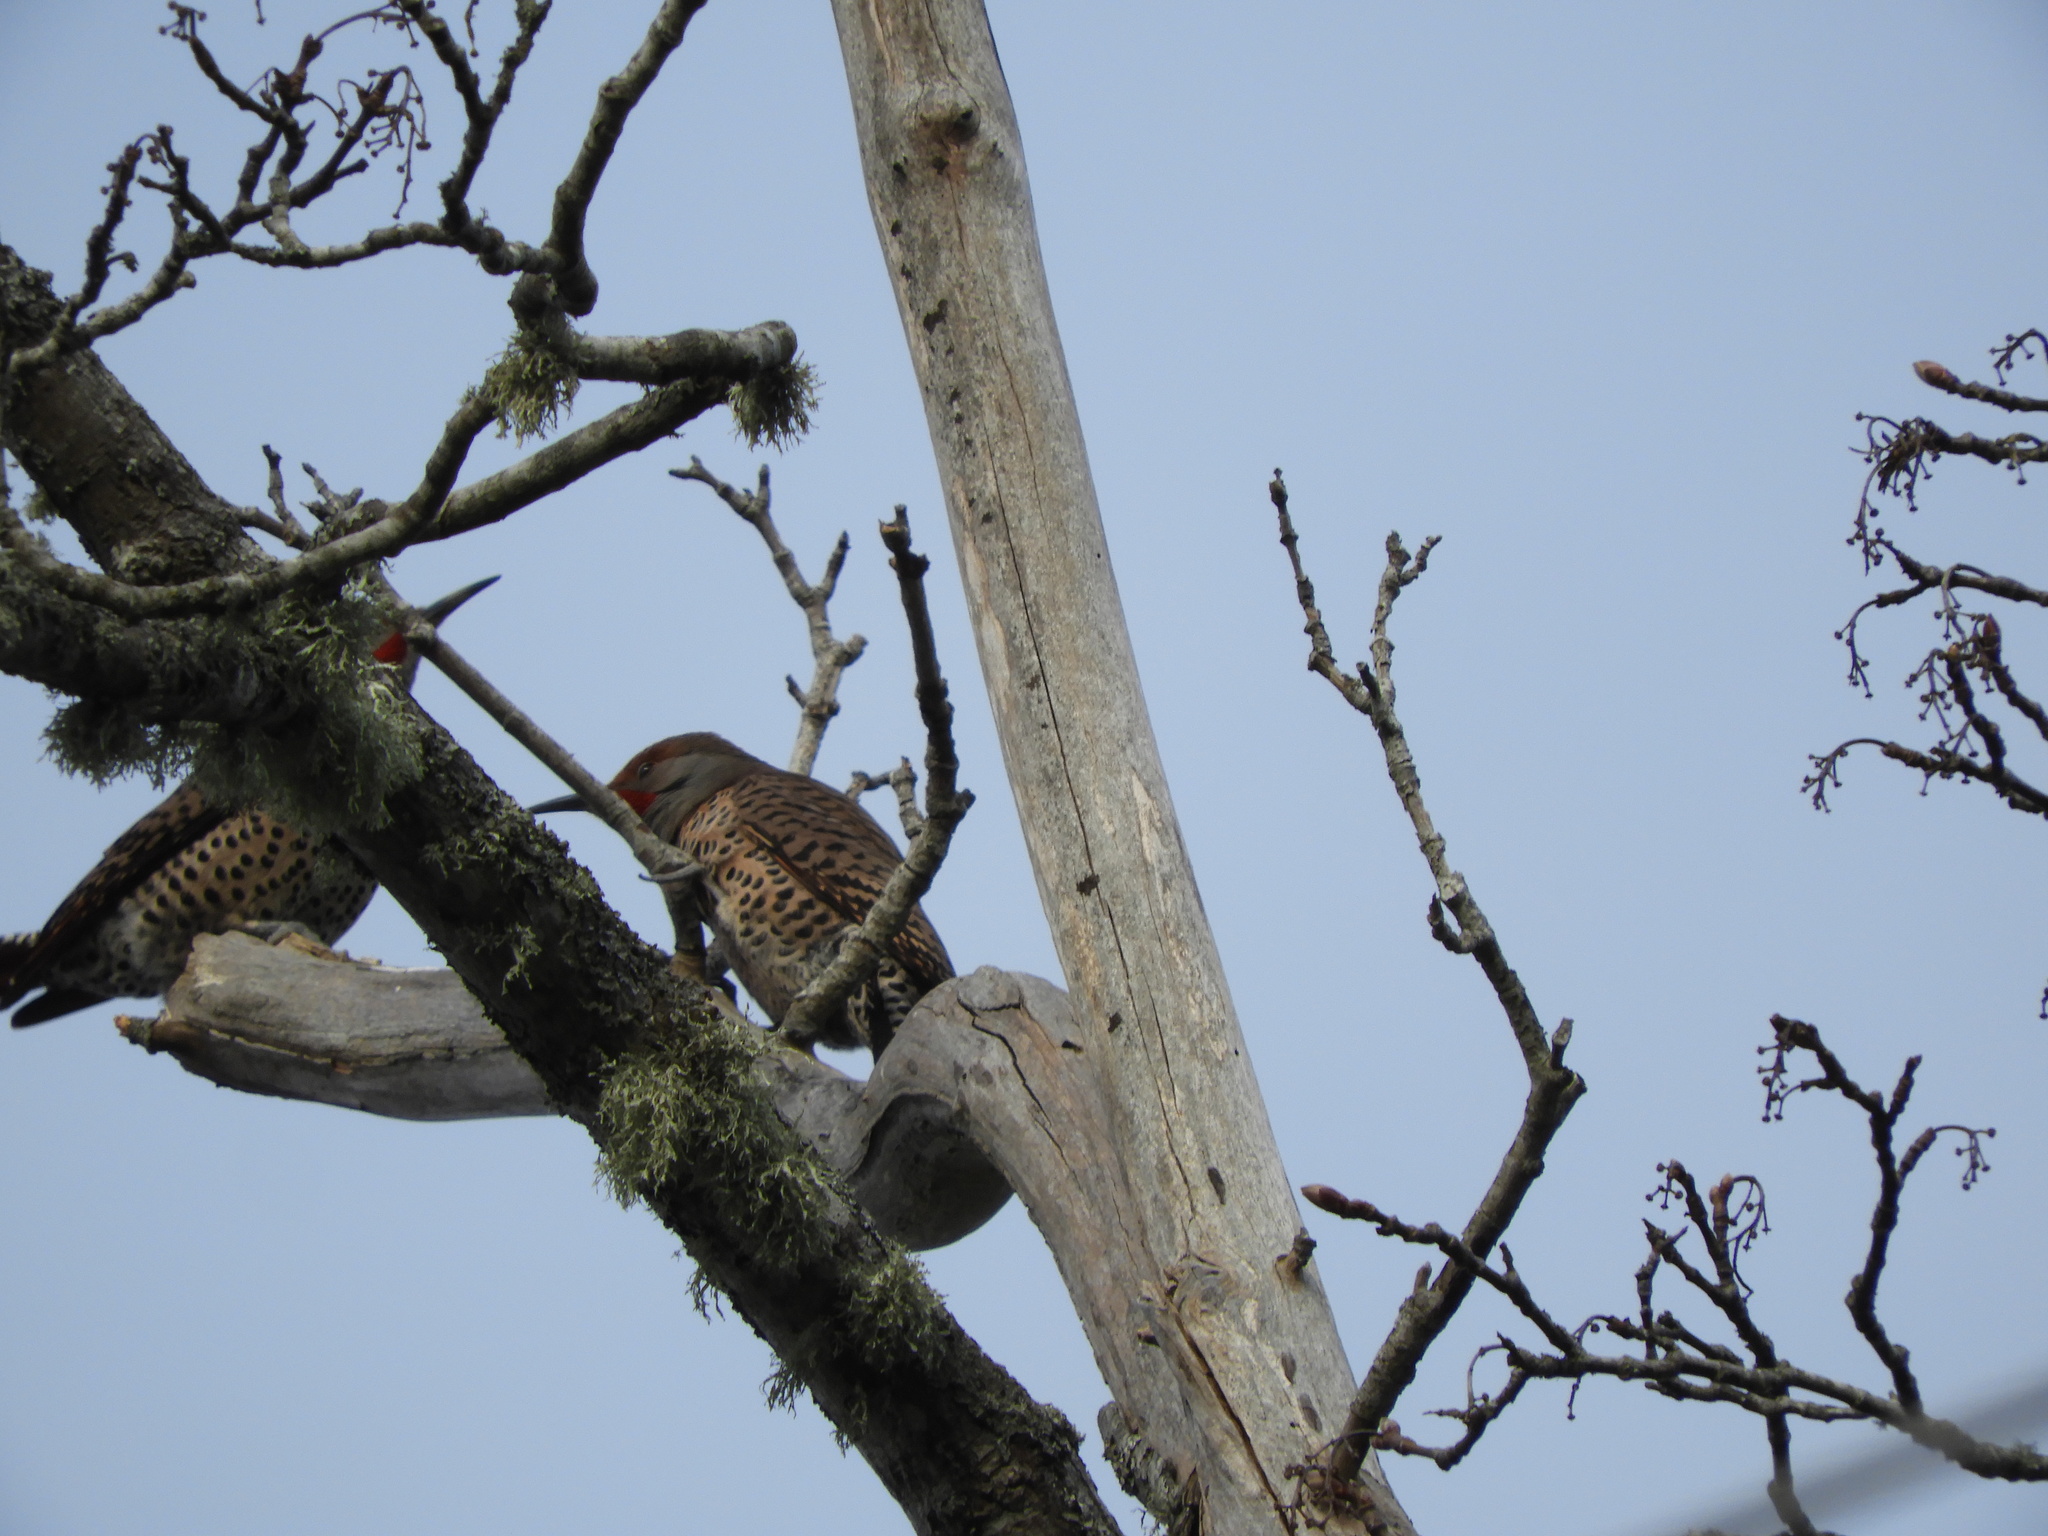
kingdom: Animalia
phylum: Chordata
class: Aves
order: Piciformes
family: Picidae
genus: Colaptes
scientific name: Colaptes auratus
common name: Northern flicker
